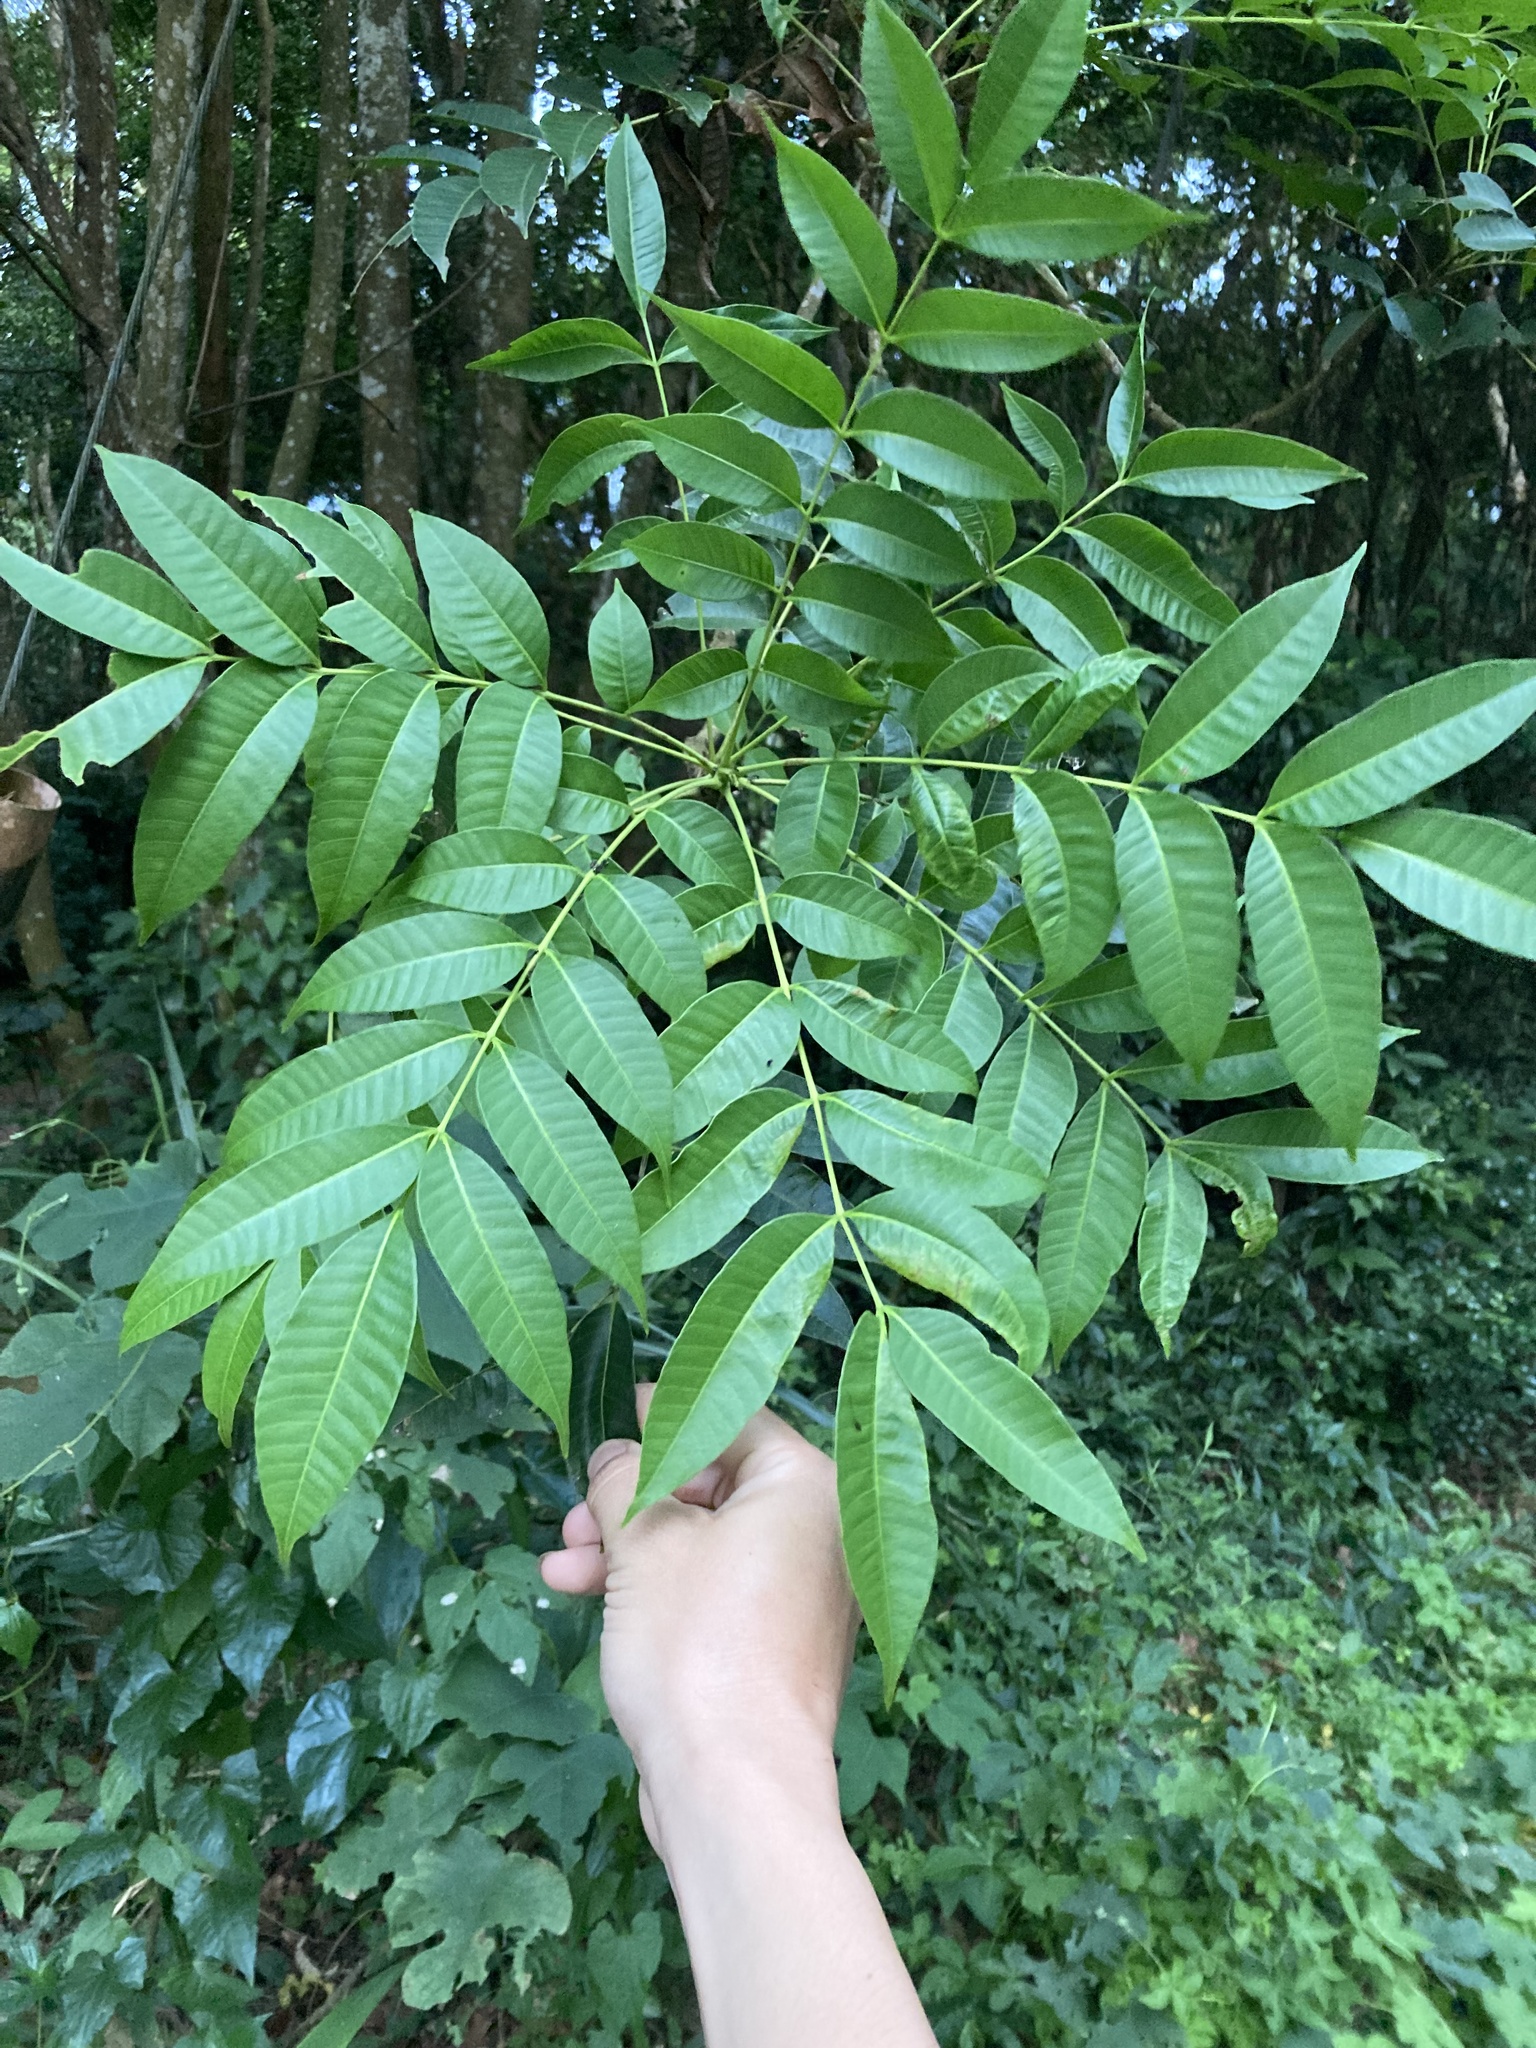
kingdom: Plantae
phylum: Tracheophyta
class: Magnoliopsida
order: Sapindales
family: Meliaceae
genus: Toona
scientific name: Toona sinensis
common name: Red toon
